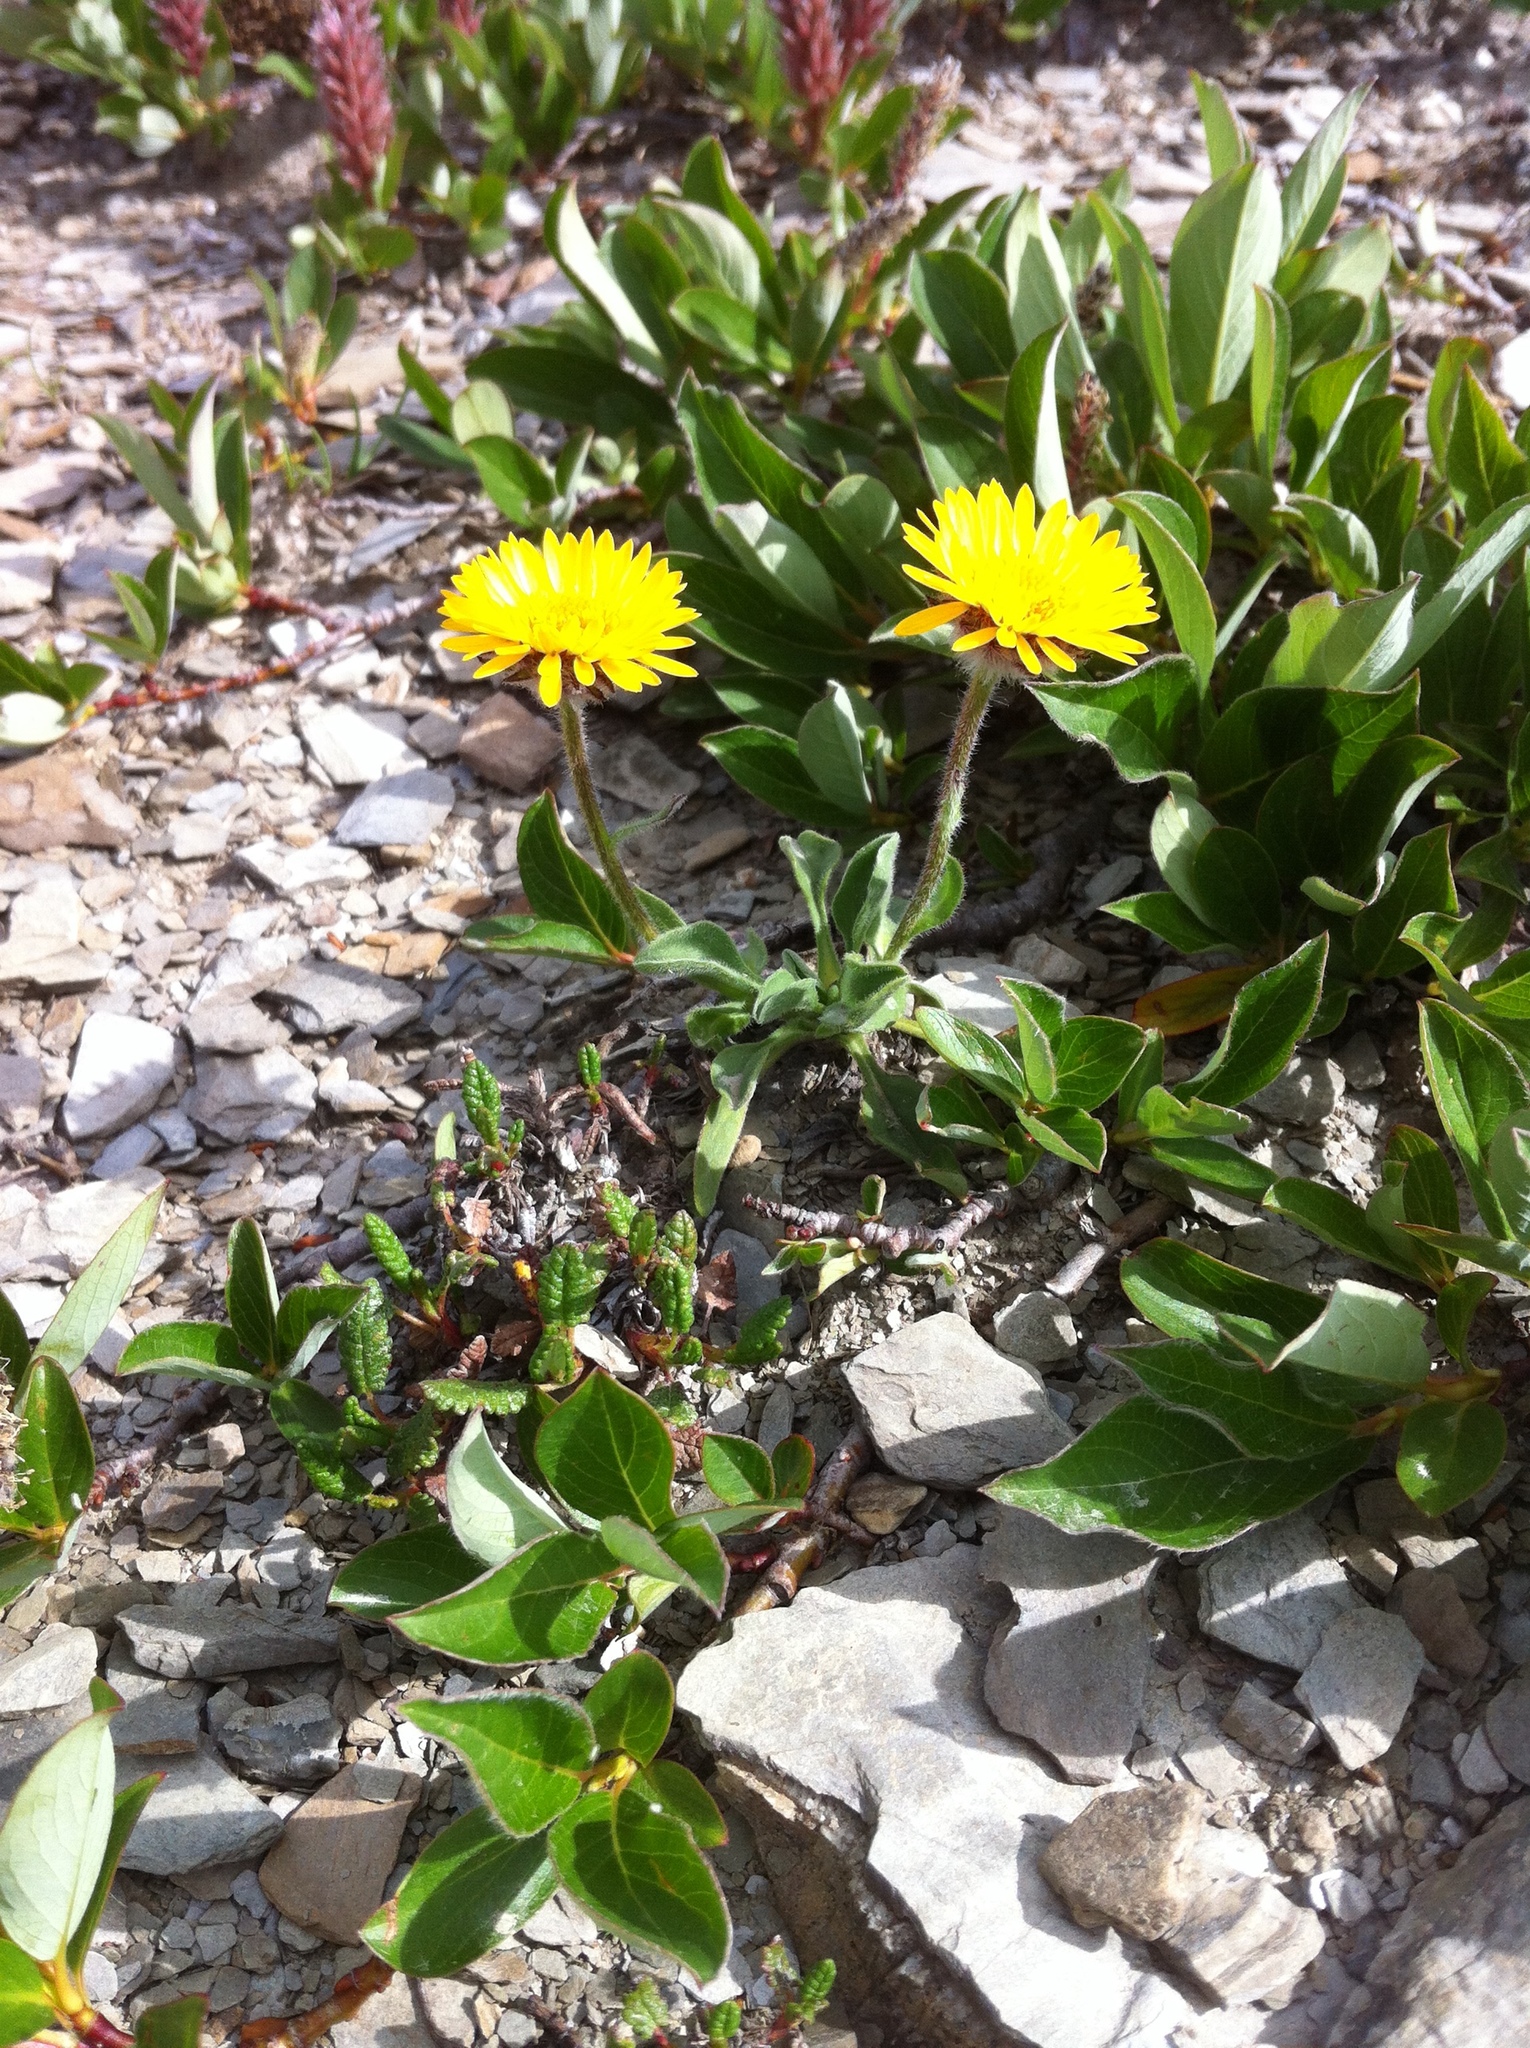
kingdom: Plantae
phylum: Tracheophyta
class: Magnoliopsida
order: Asterales
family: Asteraceae
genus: Erigeron
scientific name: Erigeron aureus
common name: Alpine yellow fleabane
